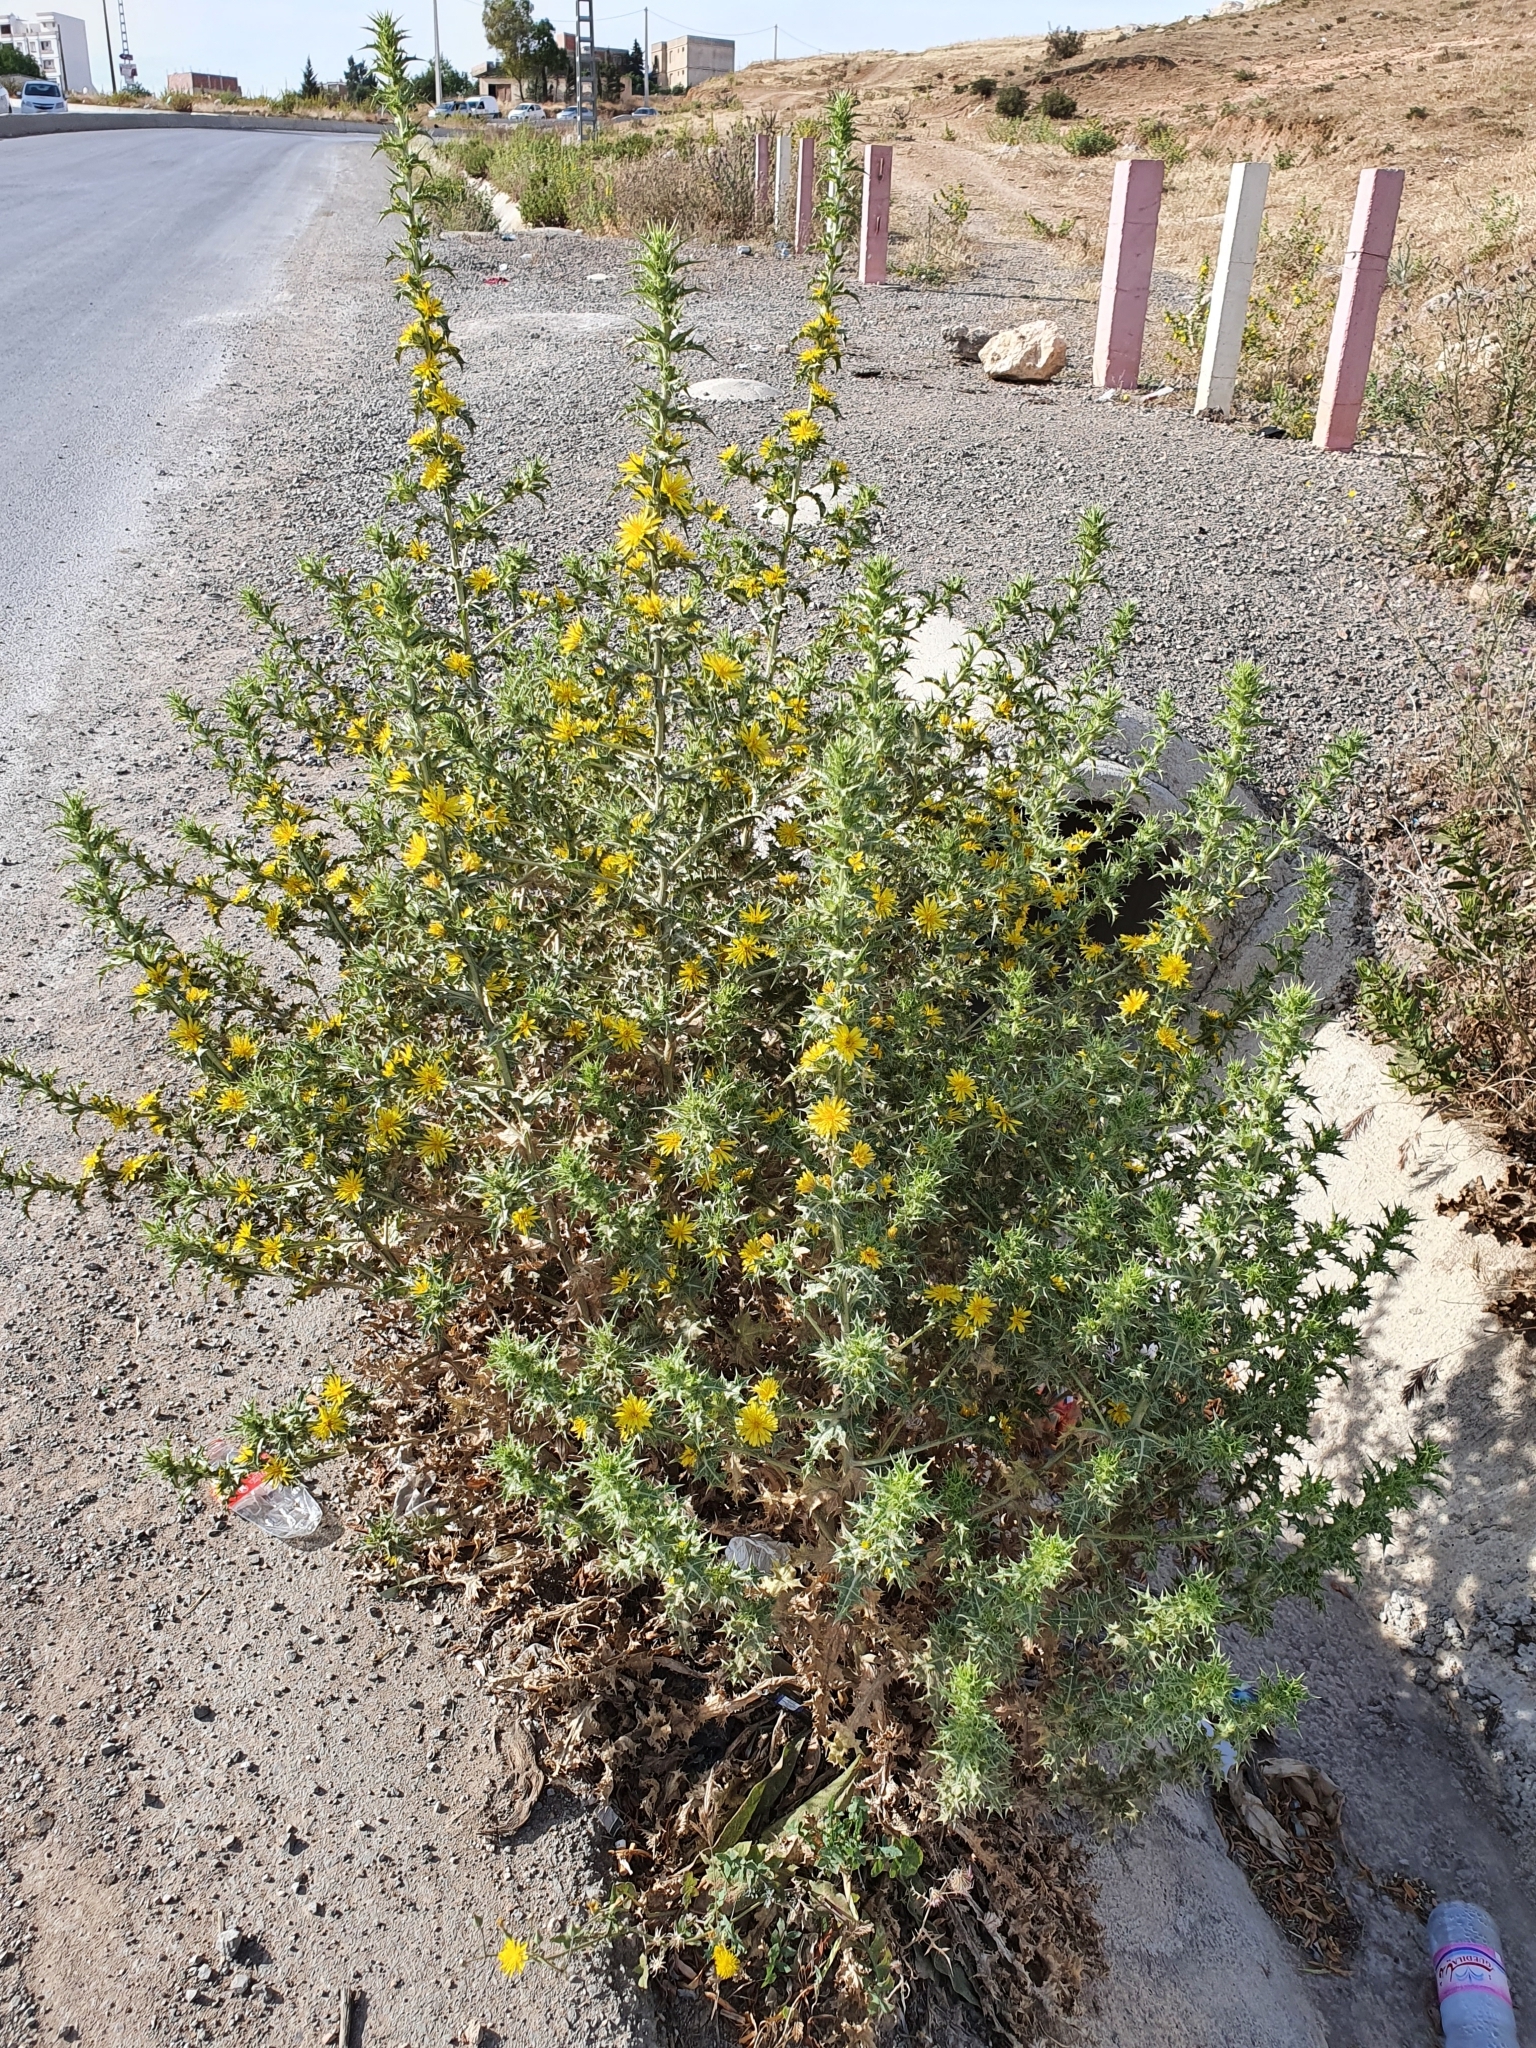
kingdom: Plantae
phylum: Tracheophyta
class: Magnoliopsida
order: Asterales
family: Asteraceae
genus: Scolymus
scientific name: Scolymus hispanicus
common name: Golden thistle
